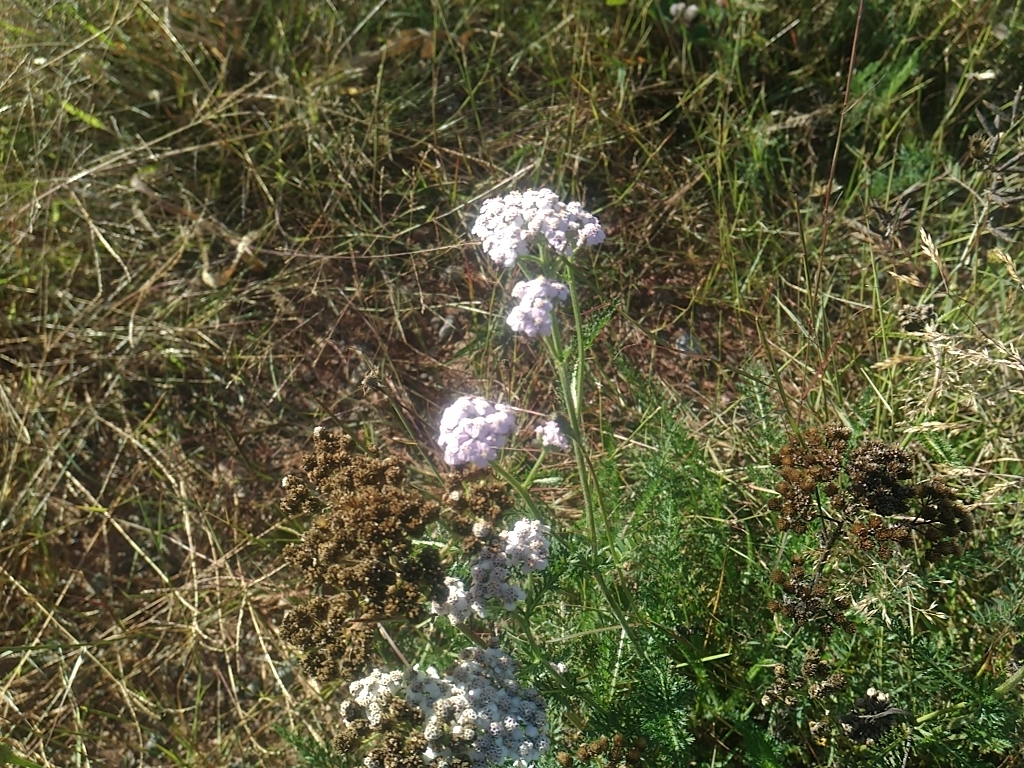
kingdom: Plantae
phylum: Tracheophyta
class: Magnoliopsida
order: Asterales
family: Asteraceae
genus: Achillea
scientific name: Achillea millefolium
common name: Yarrow
